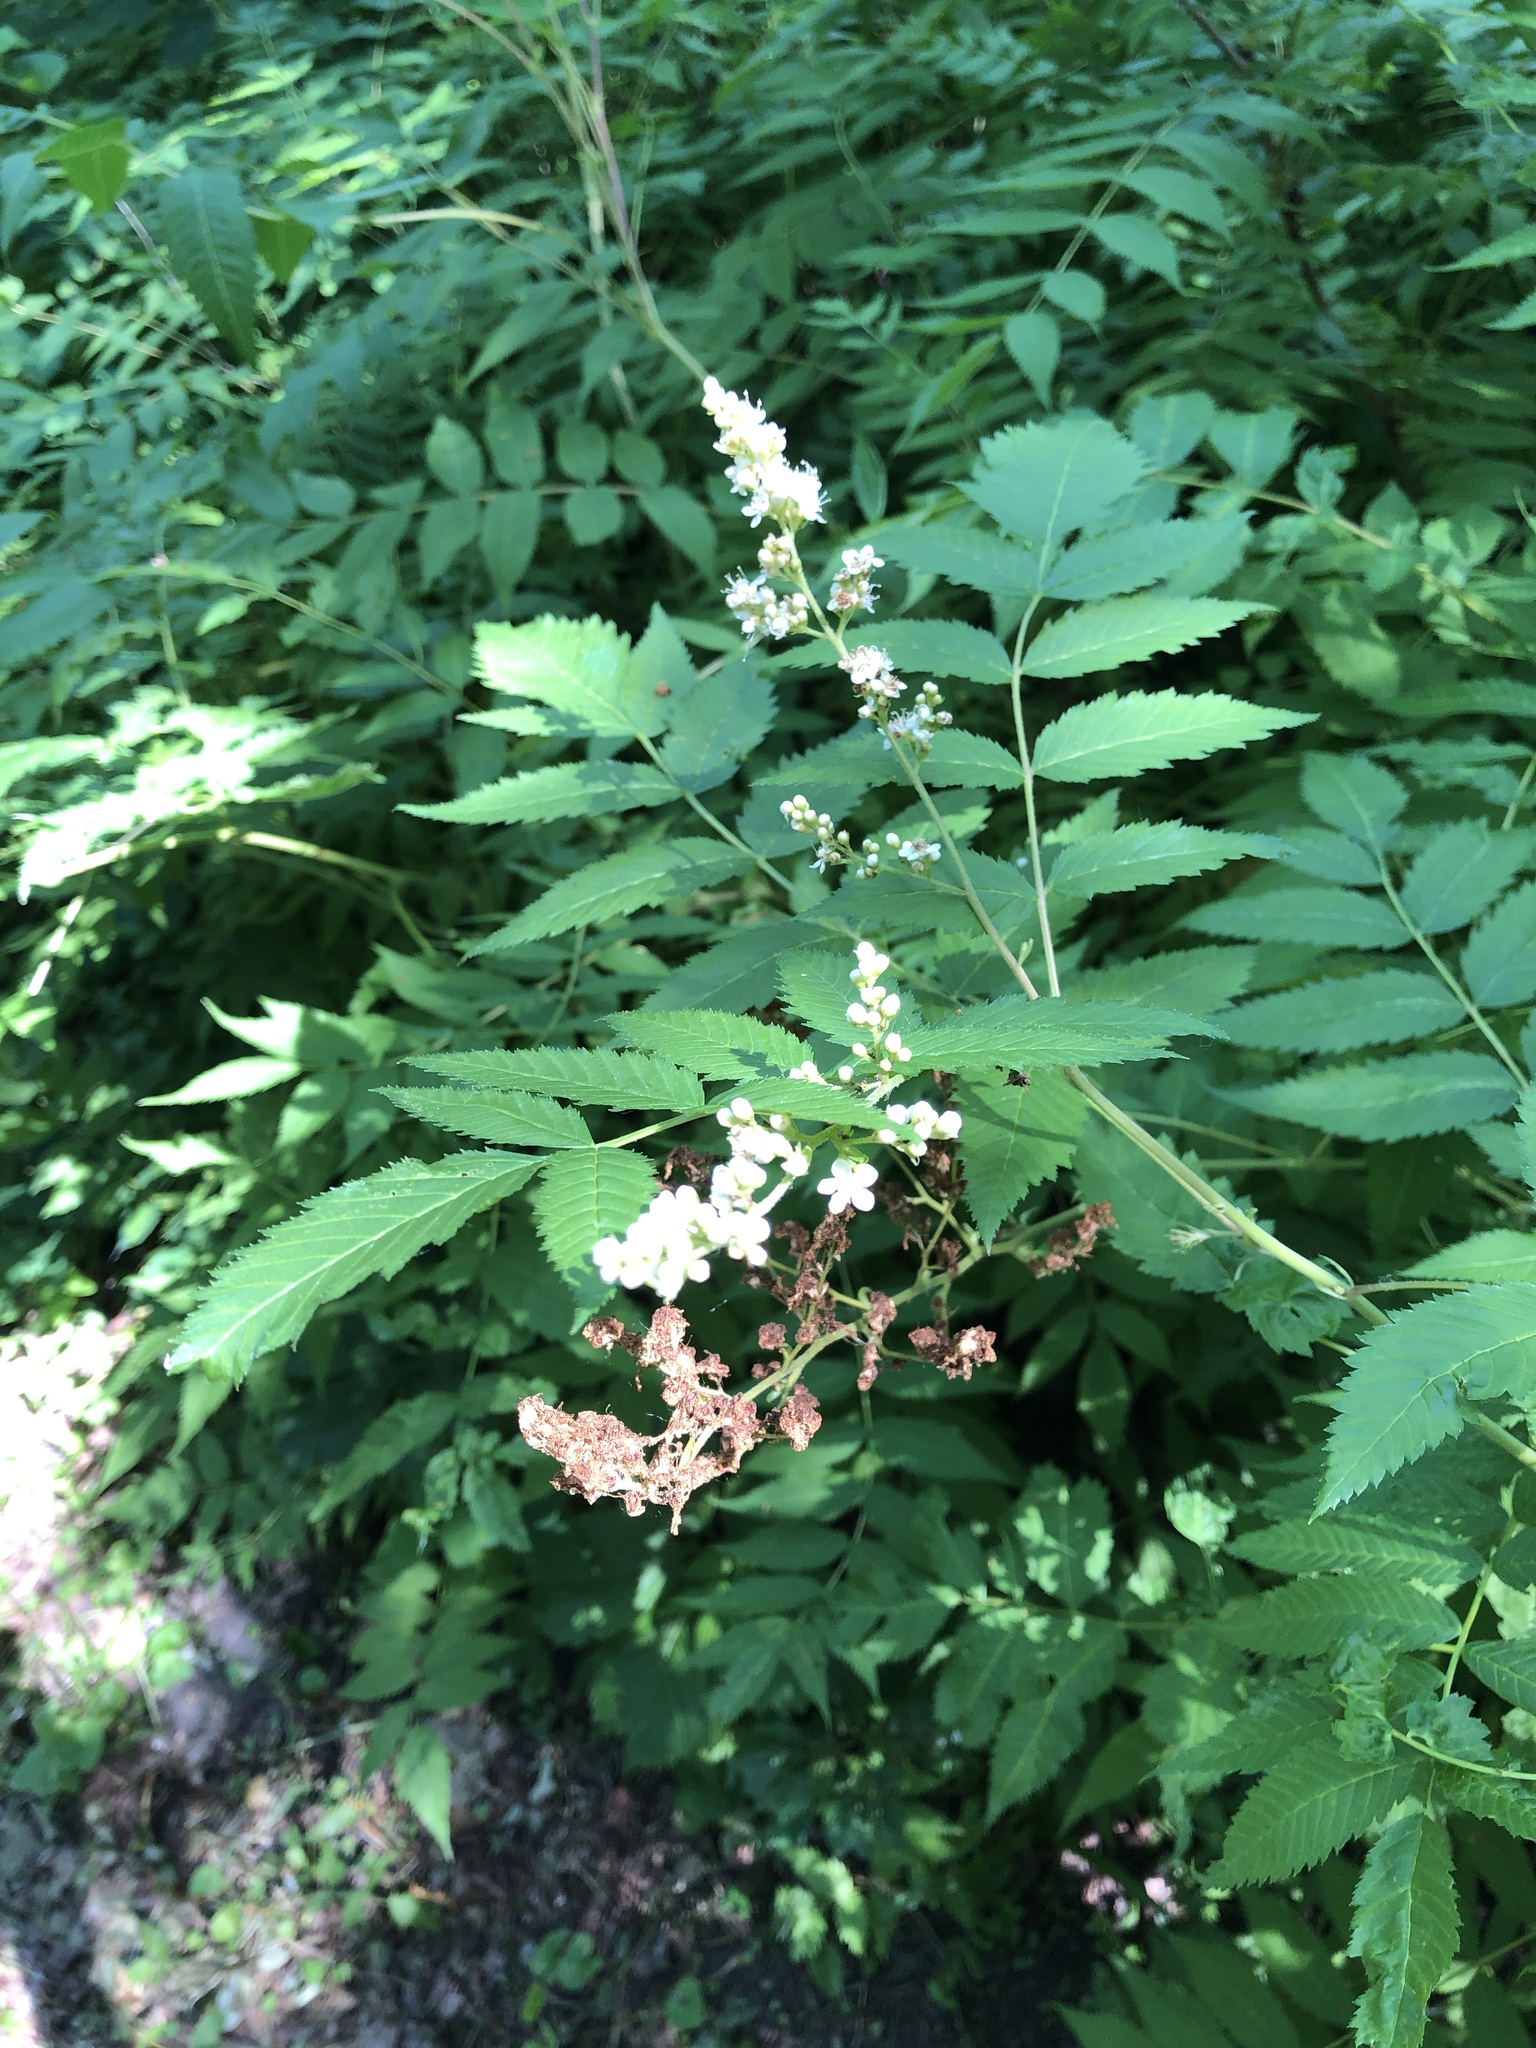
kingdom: Plantae
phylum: Tracheophyta
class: Magnoliopsida
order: Rosales
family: Rosaceae
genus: Sorbaria
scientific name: Sorbaria sorbifolia
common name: False spiraea
